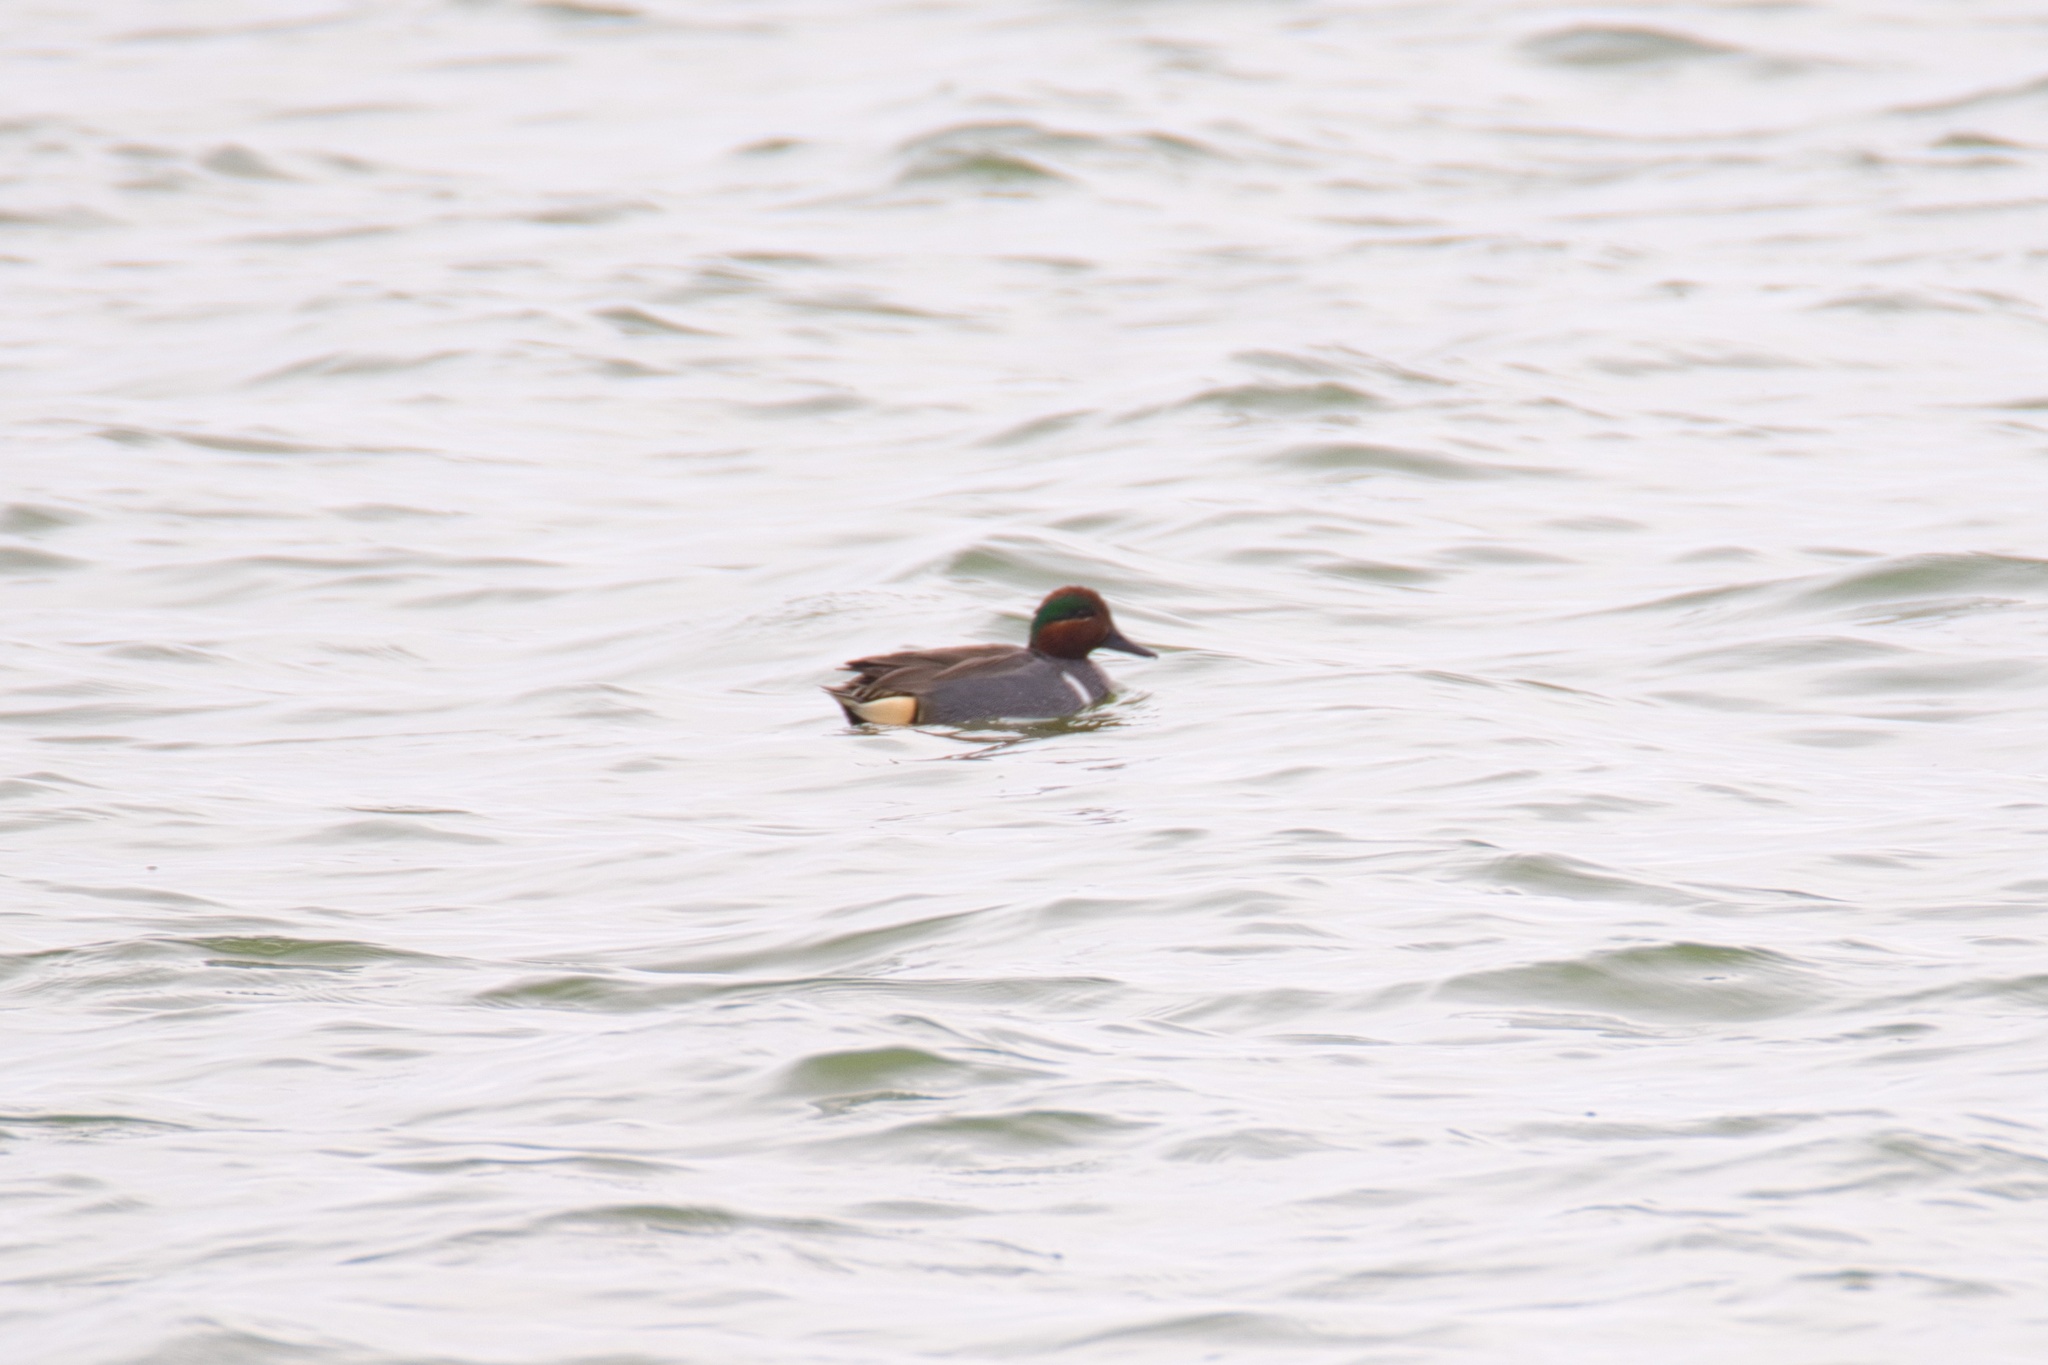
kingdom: Animalia
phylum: Chordata
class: Aves
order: Anseriformes
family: Anatidae
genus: Anas
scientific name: Anas crecca
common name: Eurasian teal
